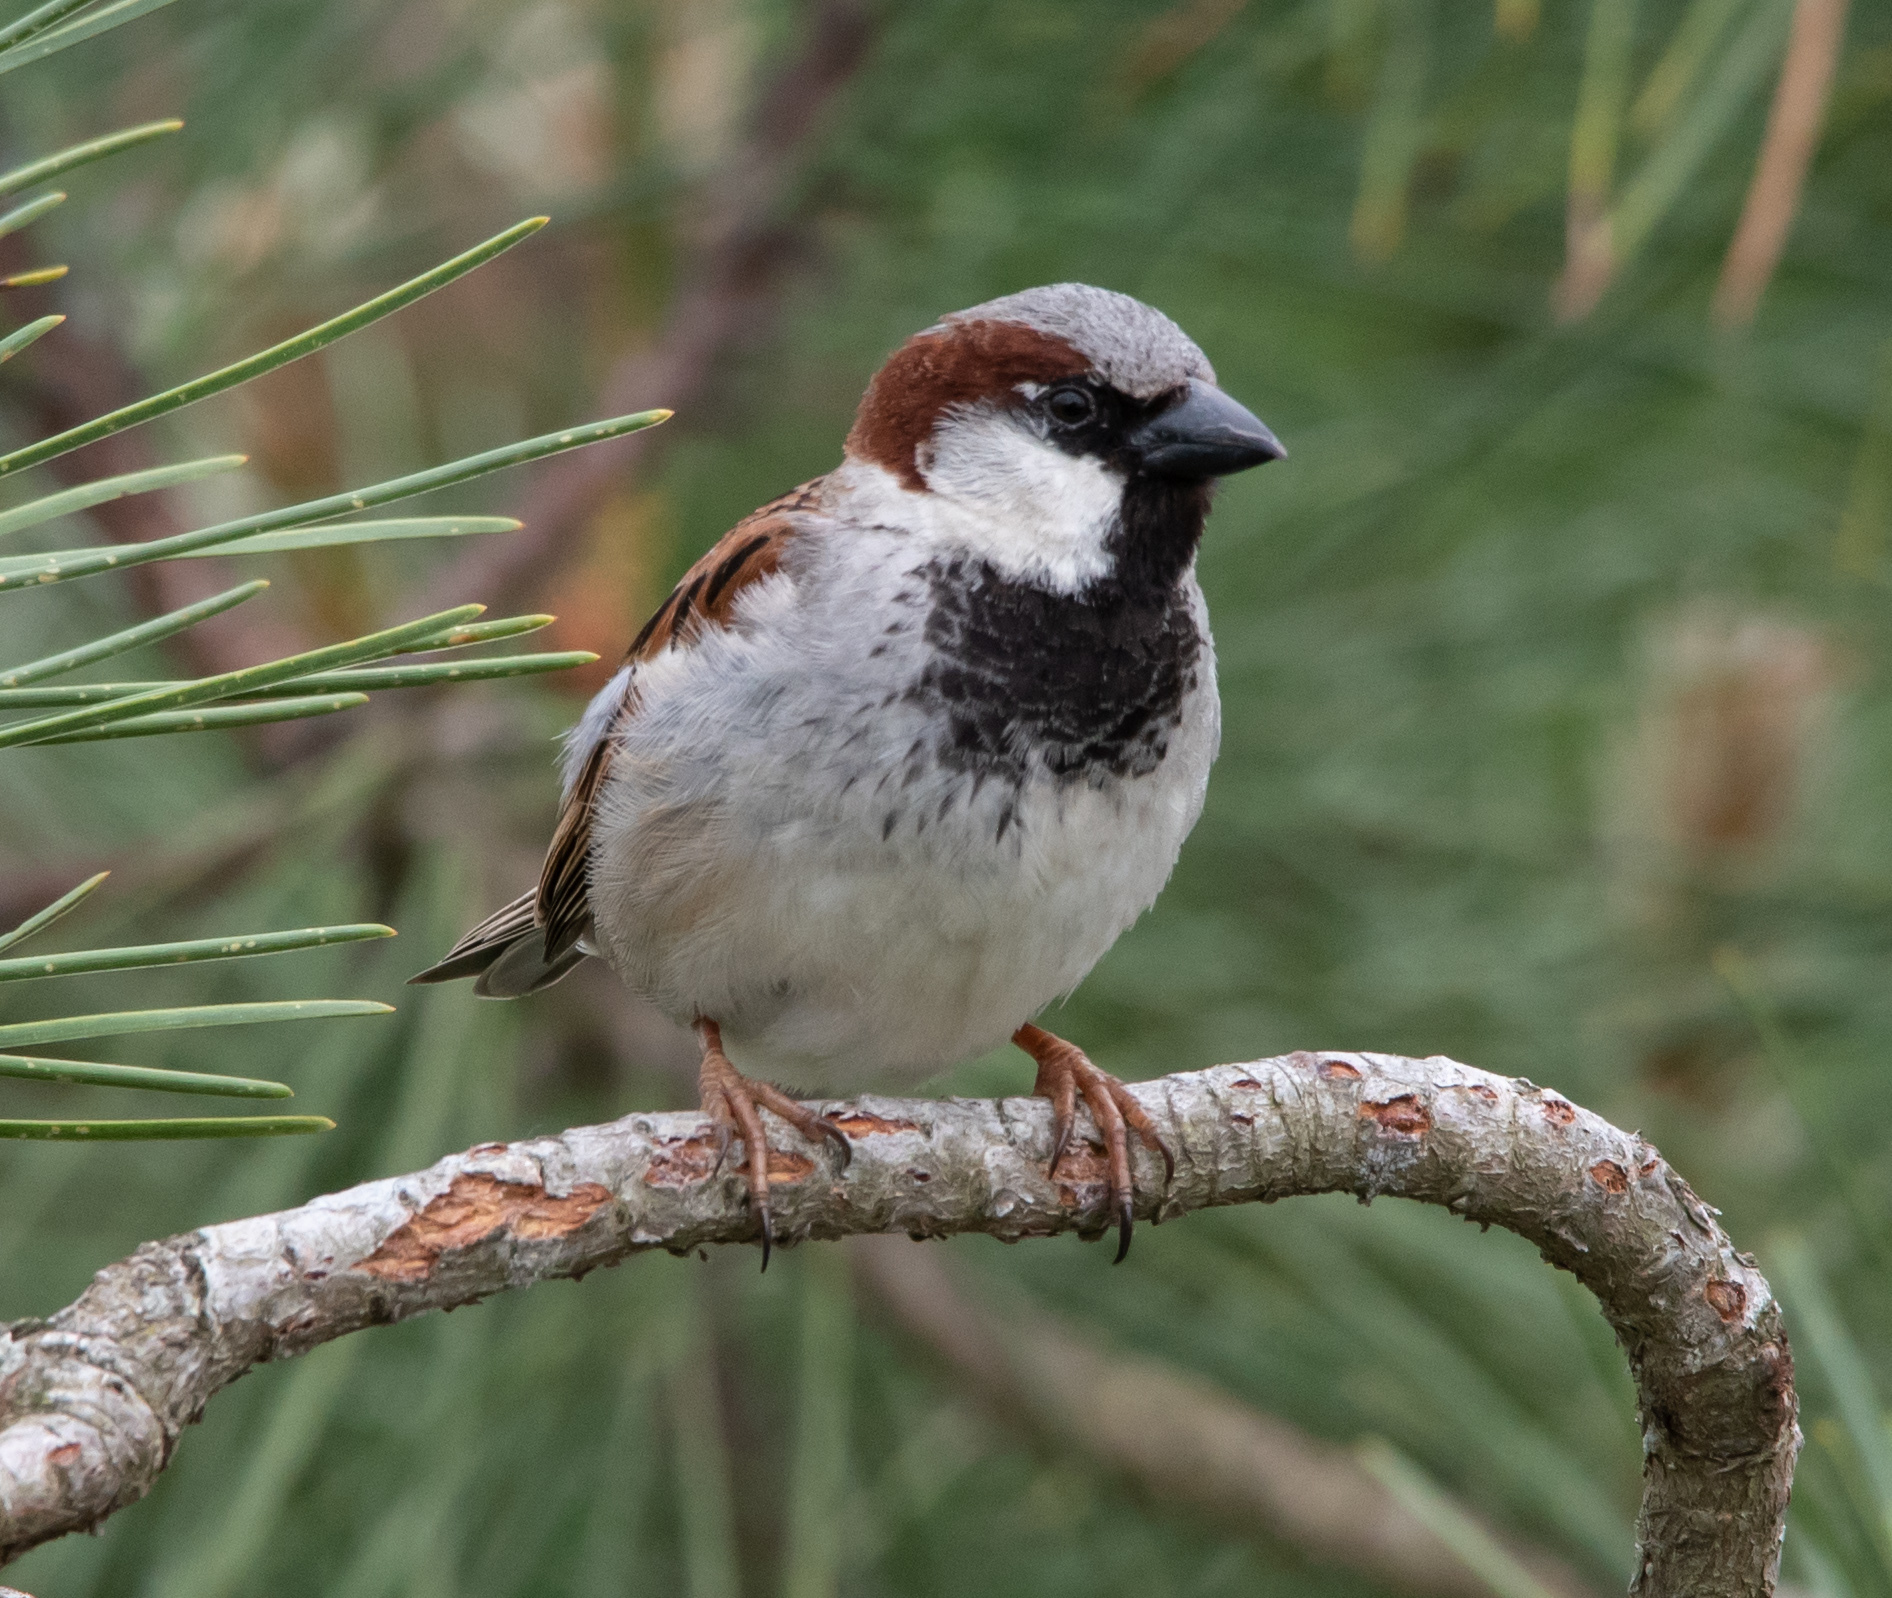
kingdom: Animalia
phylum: Chordata
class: Aves
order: Passeriformes
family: Passeridae
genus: Passer
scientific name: Passer domesticus
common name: House sparrow
